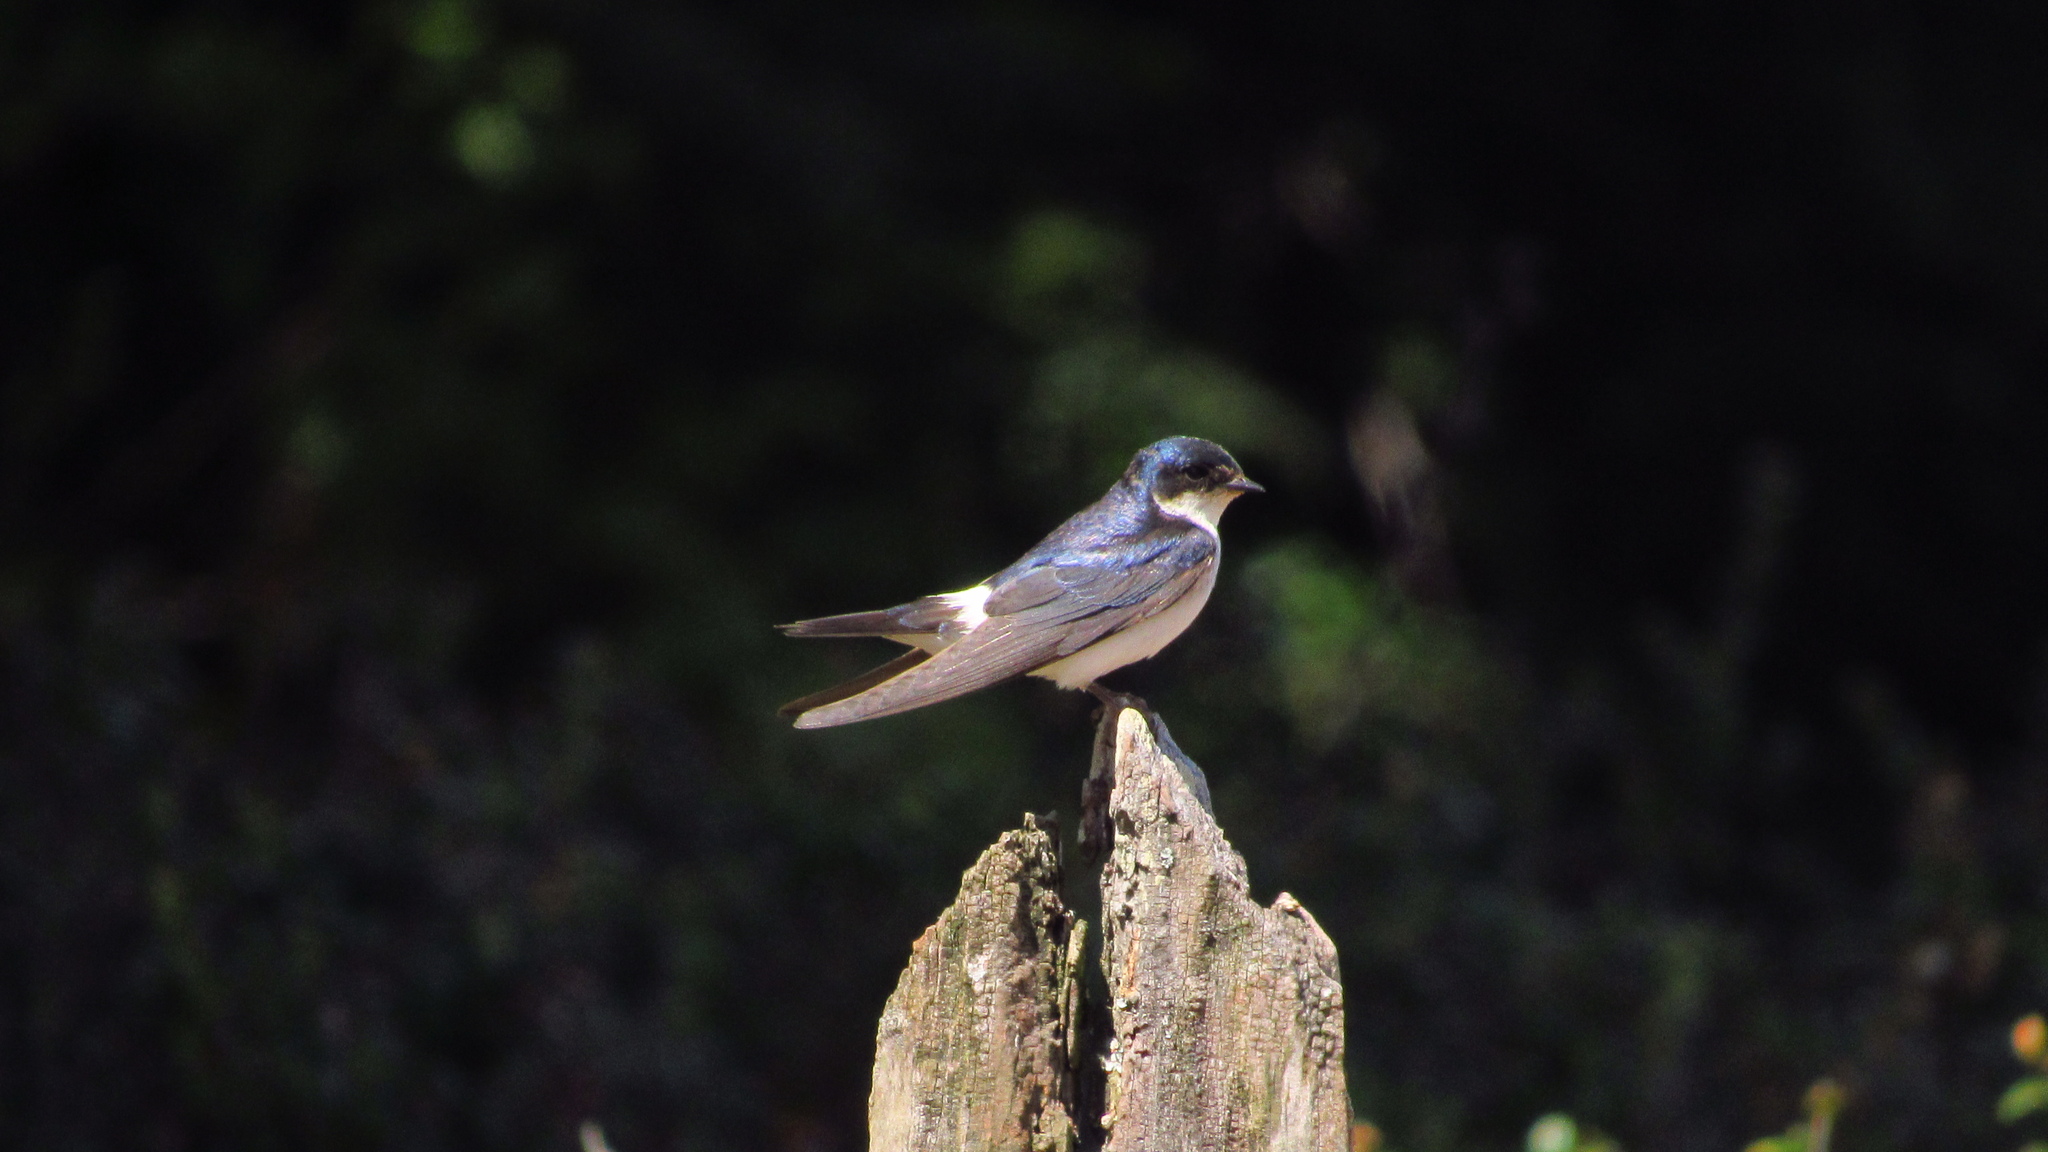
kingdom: Animalia
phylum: Chordata
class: Aves
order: Passeriformes
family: Hirundinidae
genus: Tachycineta
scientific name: Tachycineta leucopyga
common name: Chilean swallow
